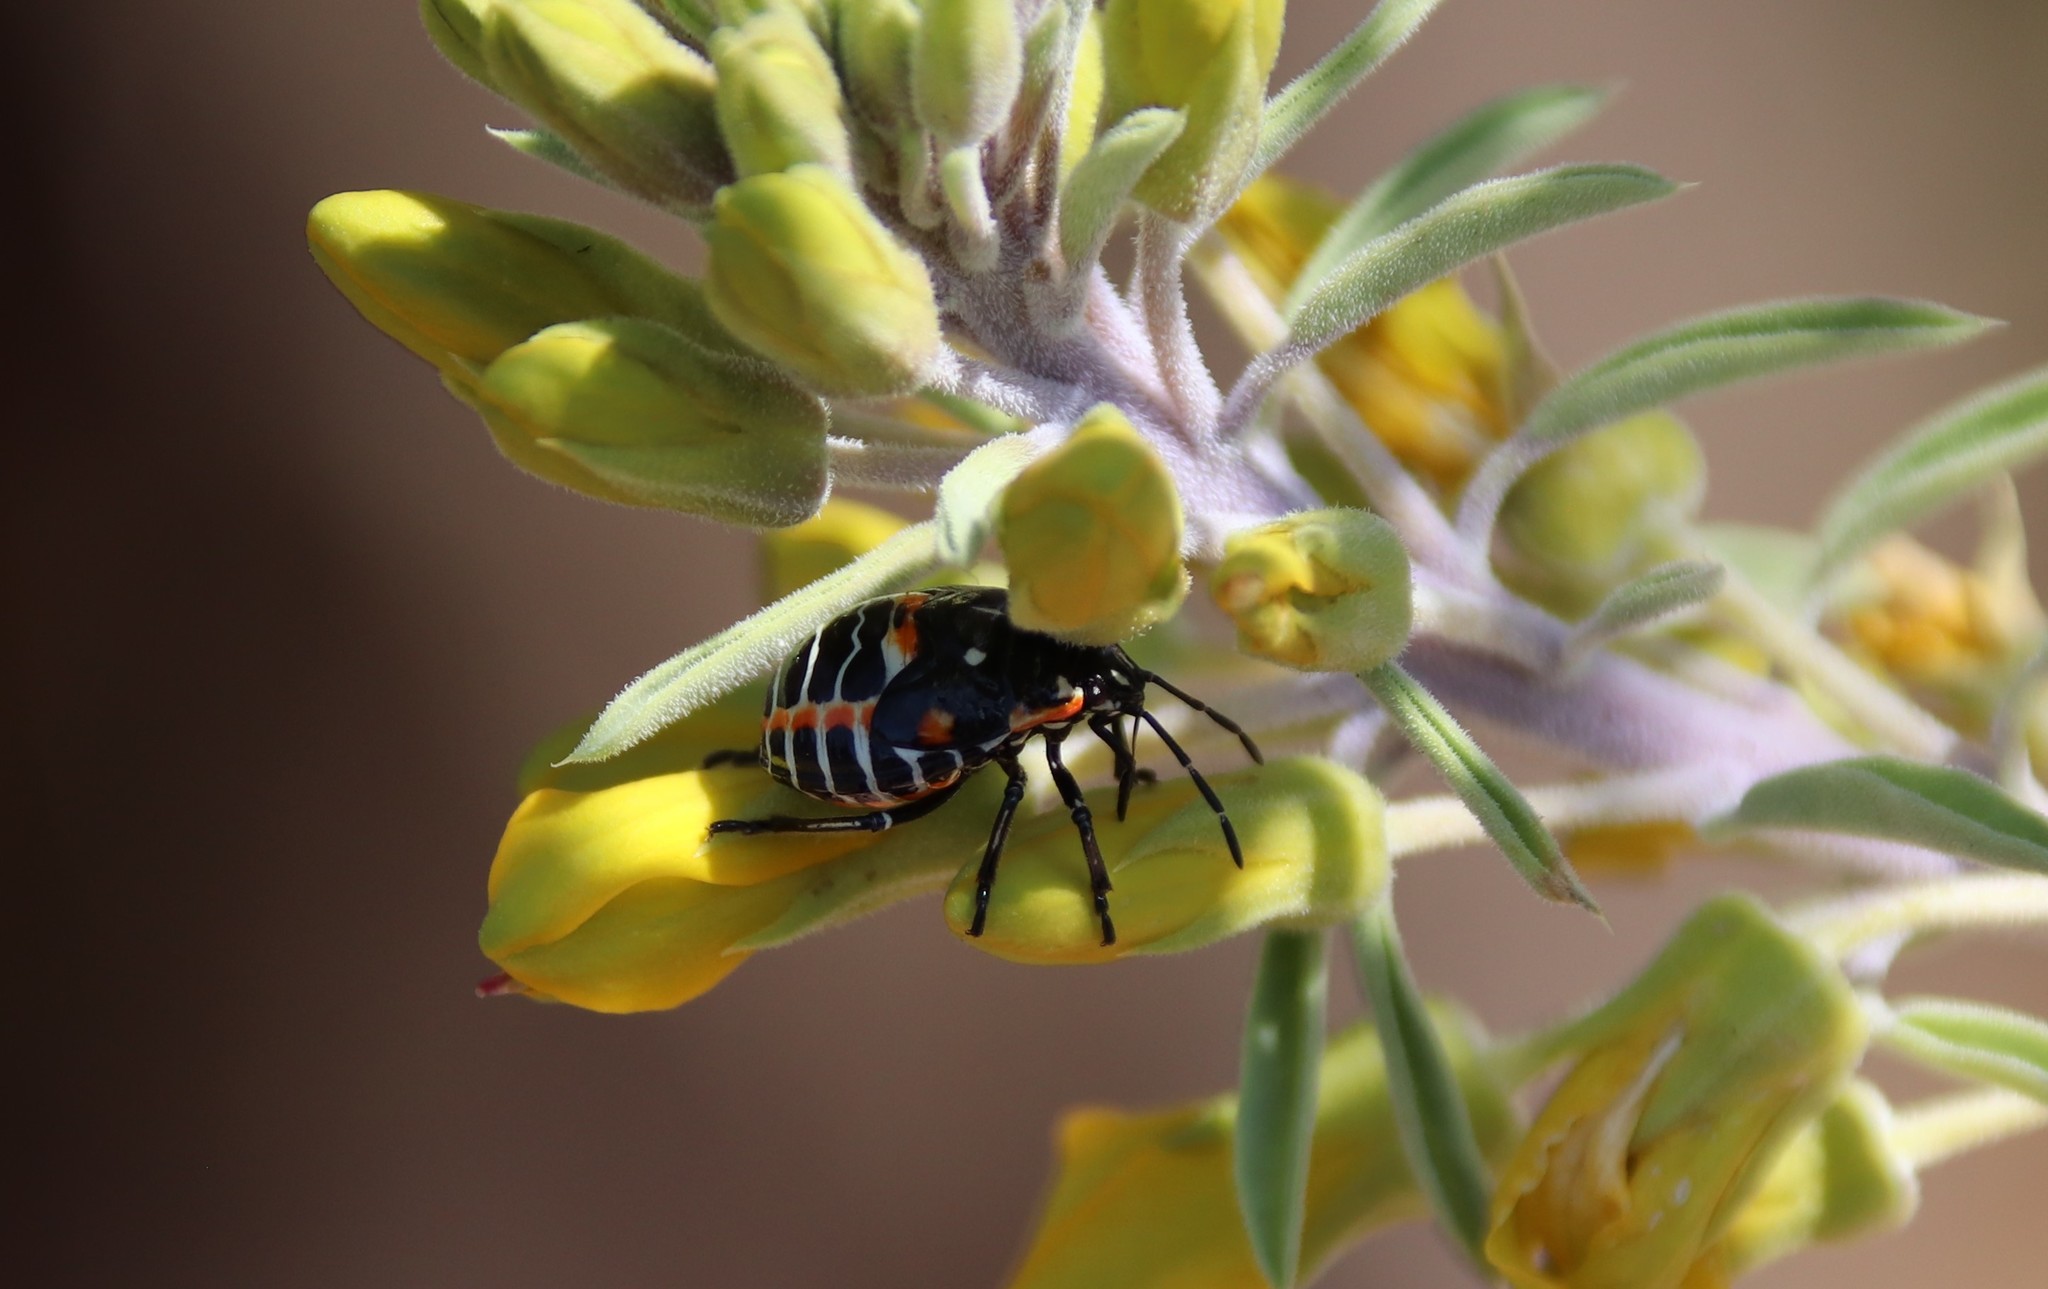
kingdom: Animalia
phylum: Arthropoda
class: Insecta
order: Hemiptera
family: Pentatomidae
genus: Murgantia
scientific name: Murgantia histrionica
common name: Harlequin bug
